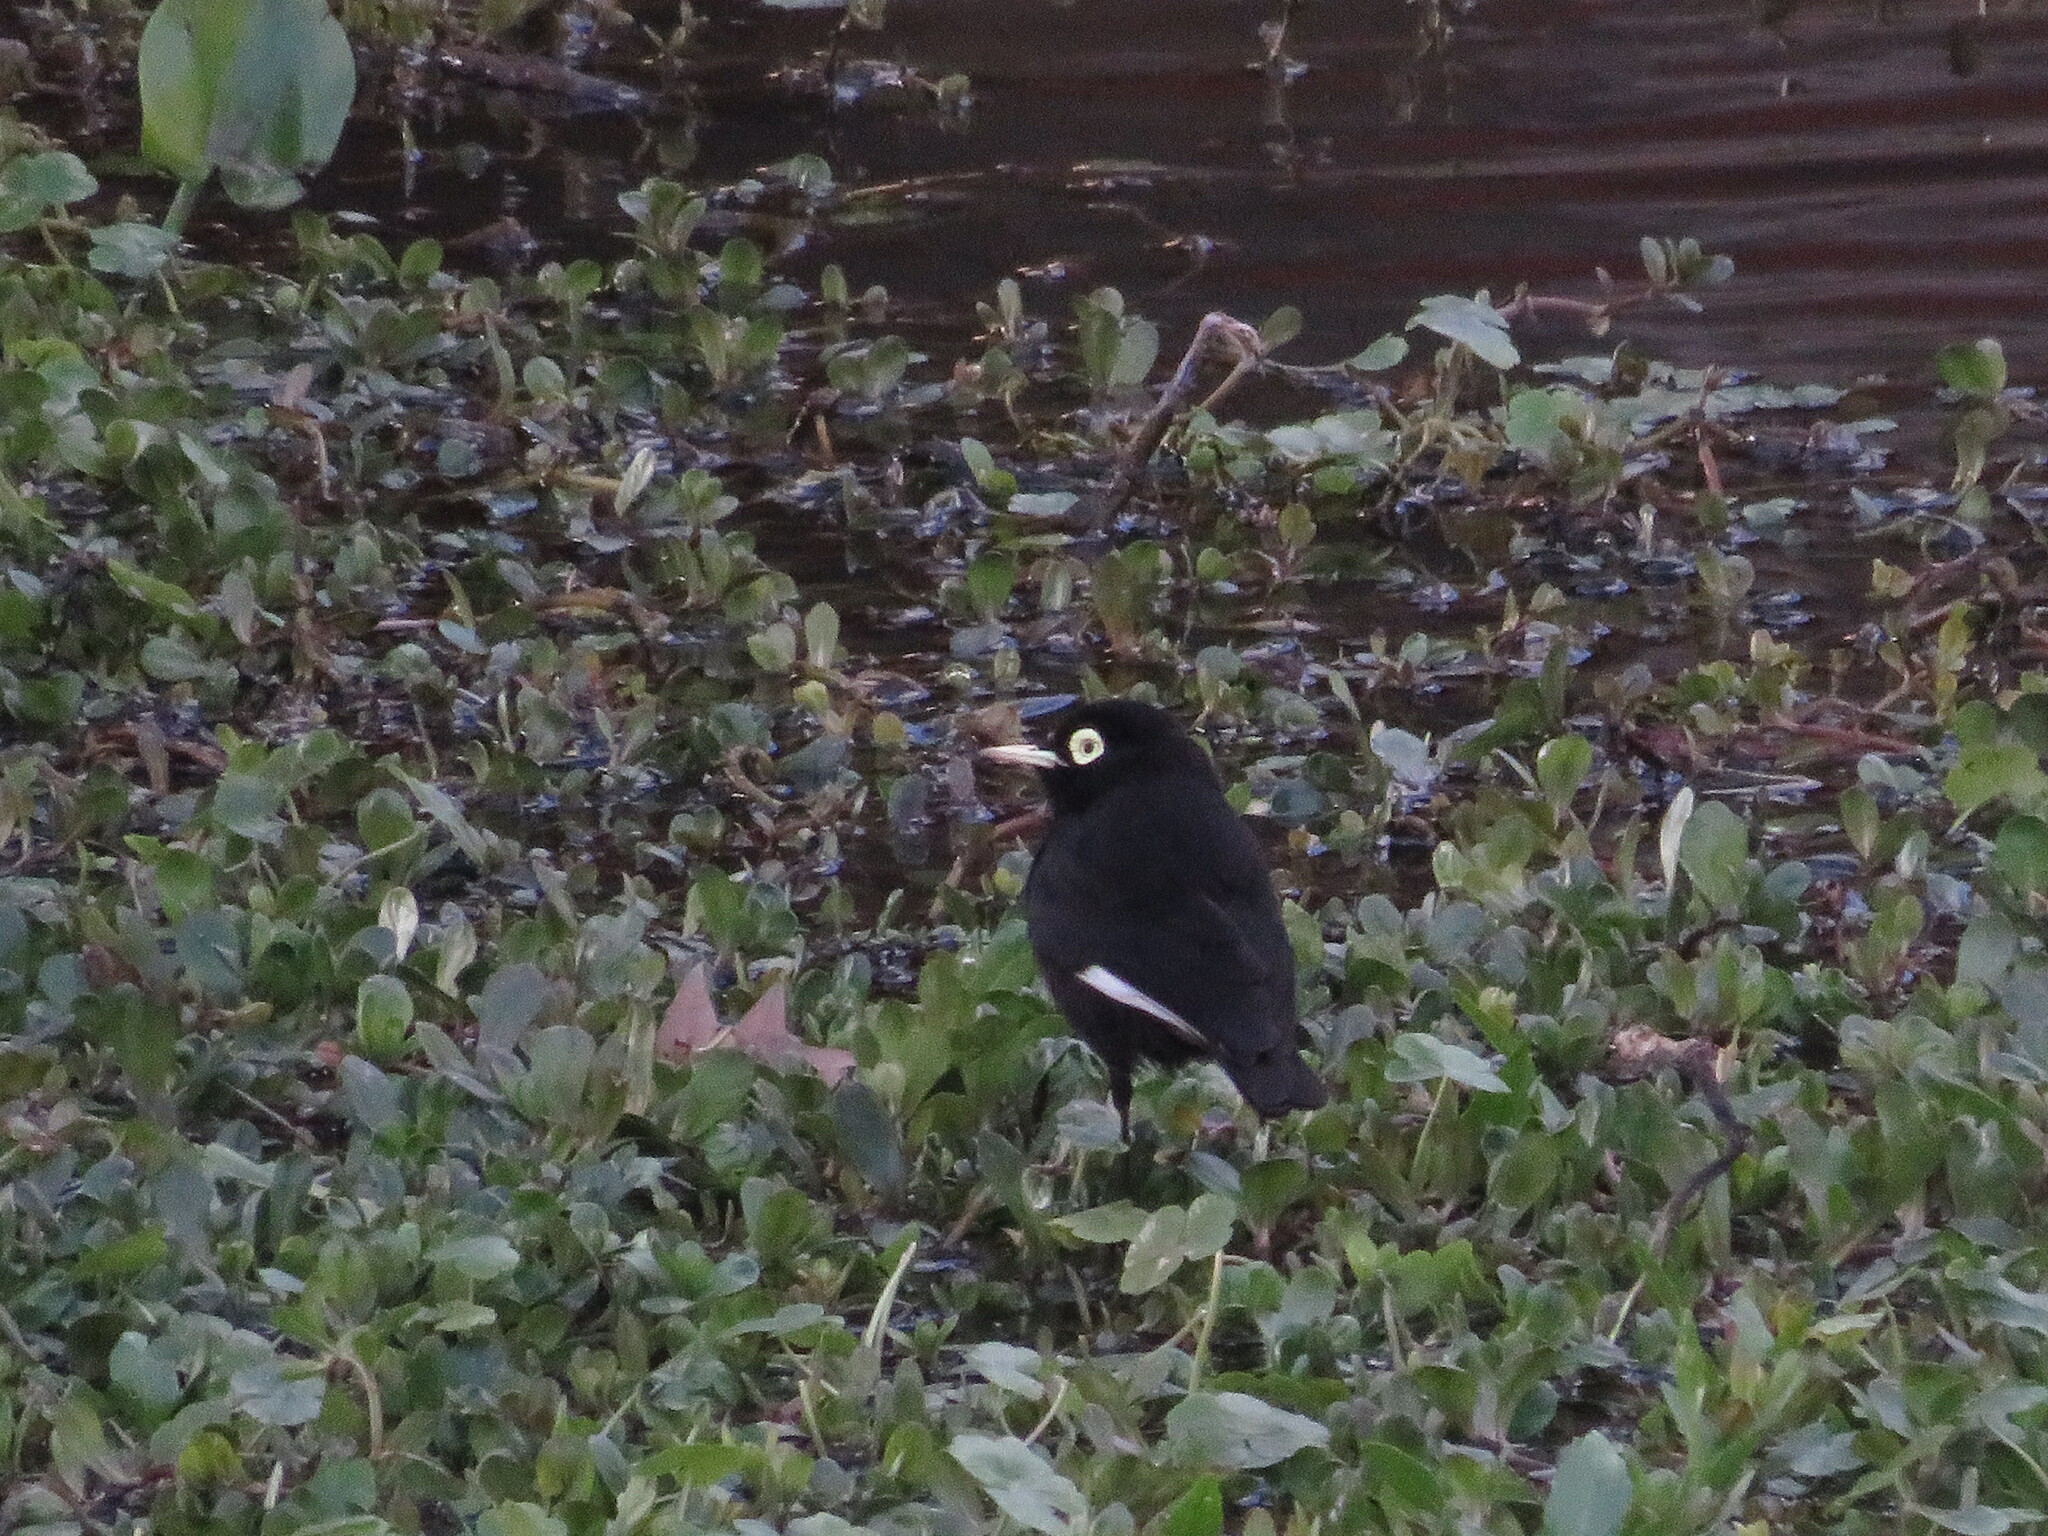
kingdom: Animalia
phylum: Chordata
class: Aves
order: Passeriformes
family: Tyrannidae
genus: Hymenops
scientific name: Hymenops perspicillatus
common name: Spectacled tyrant
